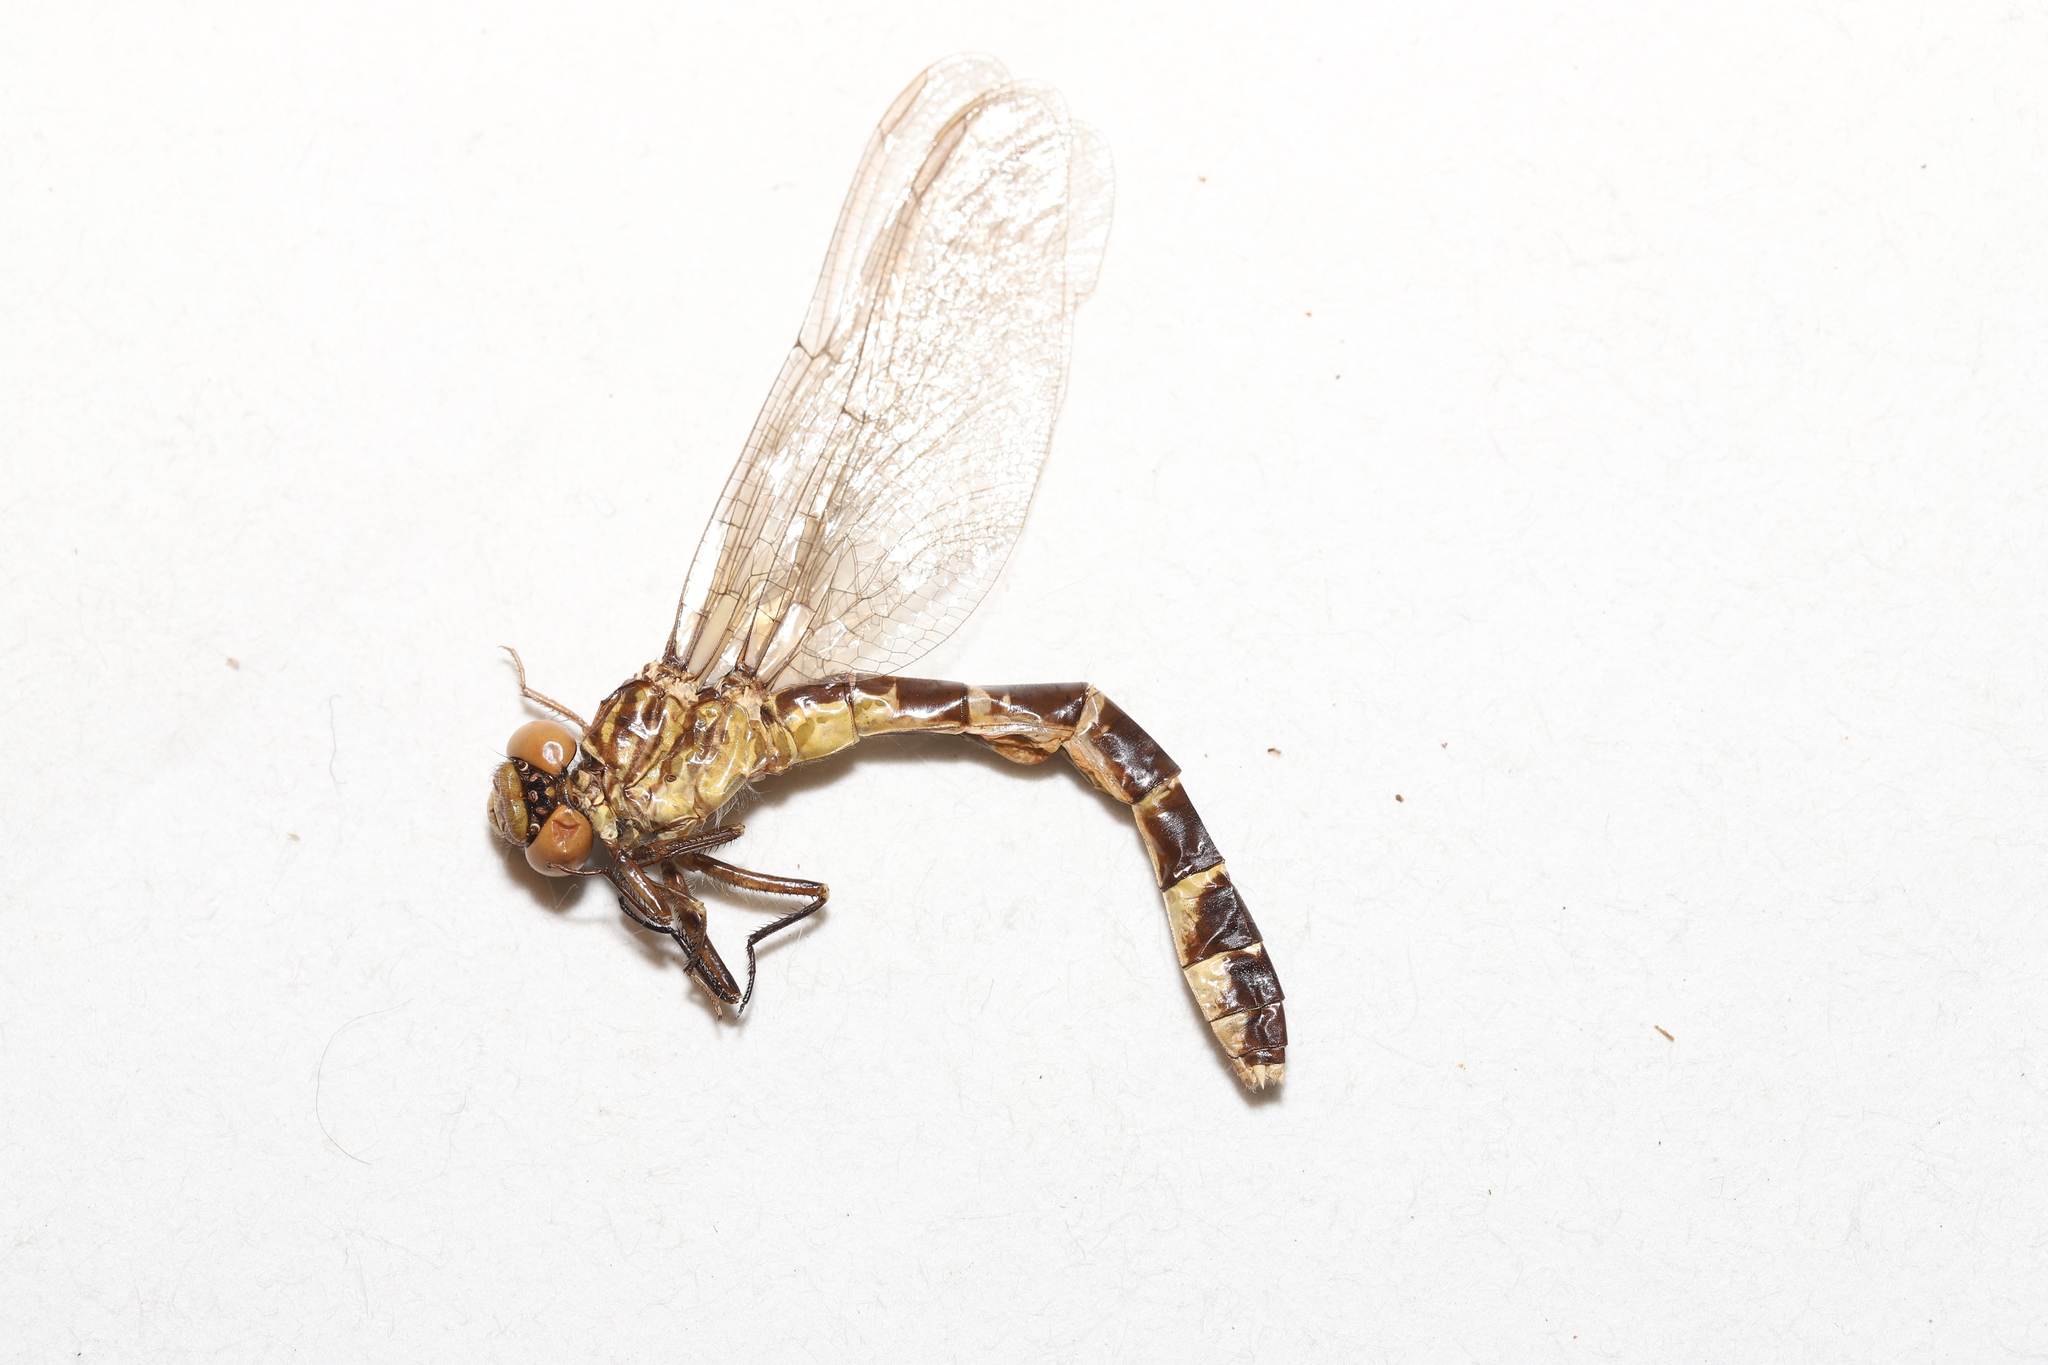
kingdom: Animalia
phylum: Arthropoda
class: Insecta
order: Odonata
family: Gomphidae
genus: Stylogomphus
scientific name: Stylogomphus albistylus
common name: Eastern least clubtail
